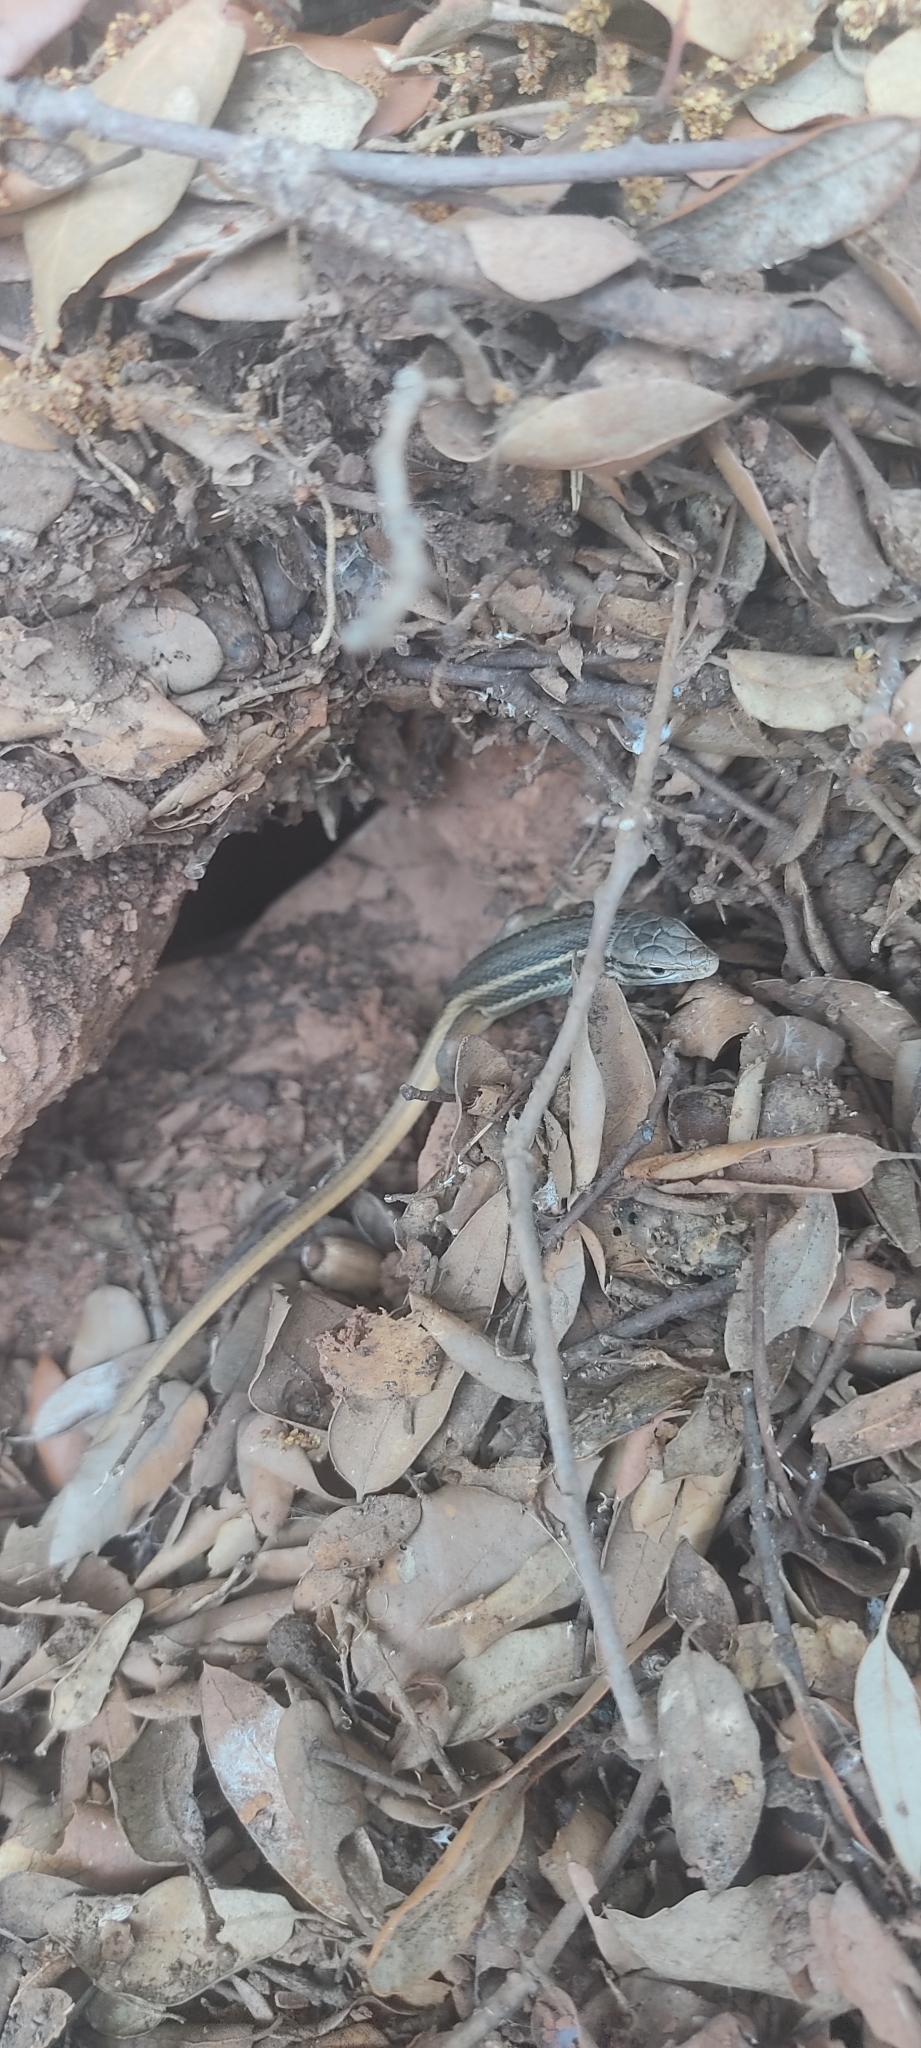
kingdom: Animalia
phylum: Chordata
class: Squamata
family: Lacertidae
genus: Psammodromus
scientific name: Psammodromus algirus
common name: Algerian psammodromus
